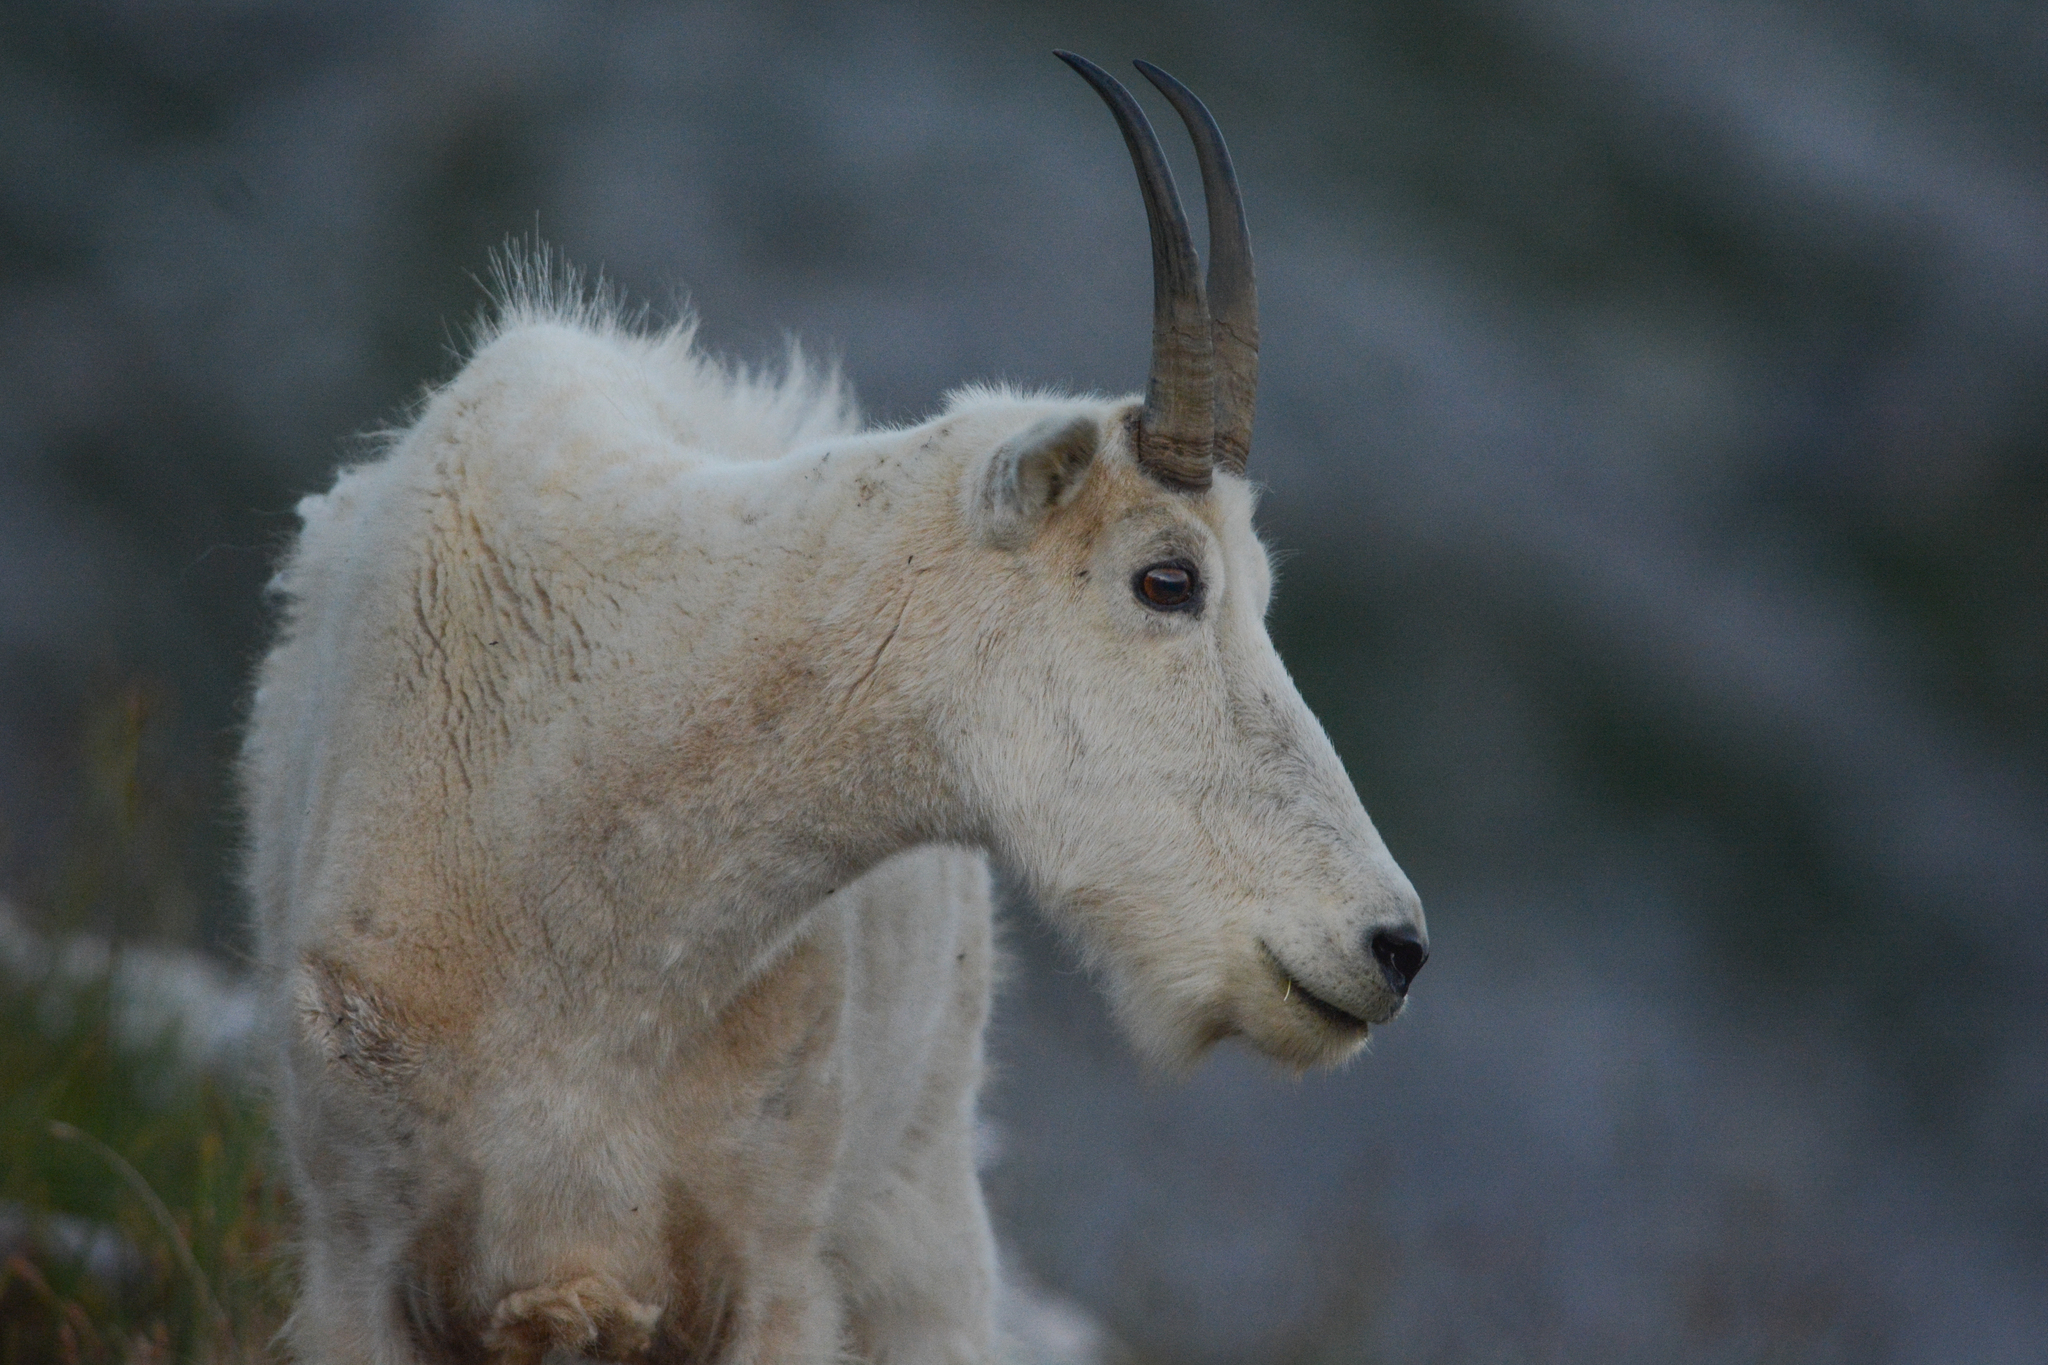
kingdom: Animalia
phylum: Chordata
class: Mammalia
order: Artiodactyla
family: Bovidae
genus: Oreamnos
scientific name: Oreamnos americanus
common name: Mountain goat
